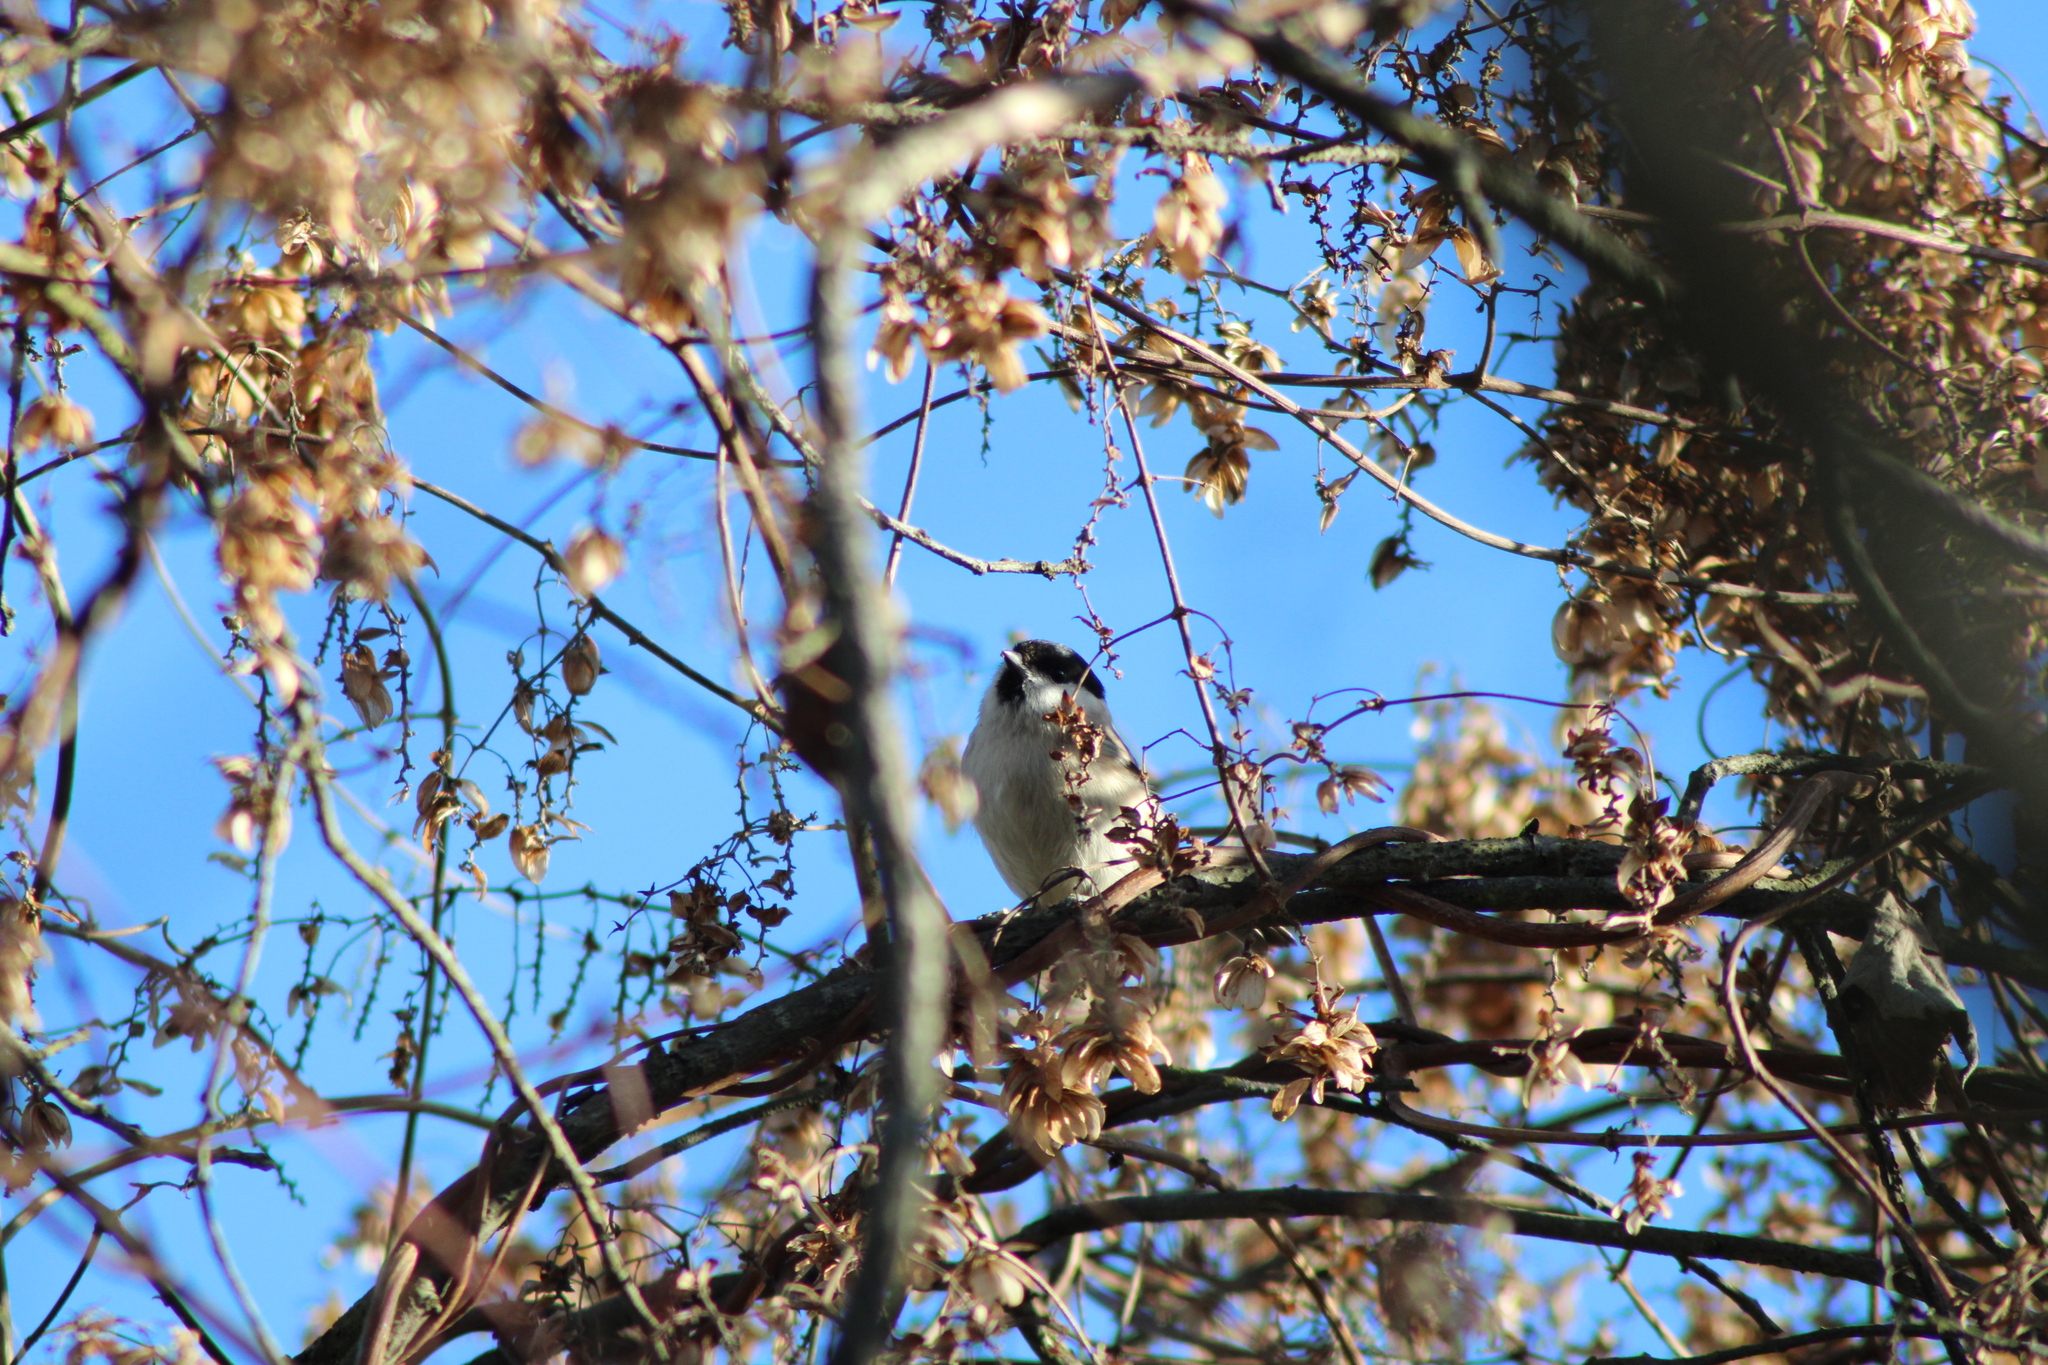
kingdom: Animalia
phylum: Chordata
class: Aves
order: Passeriformes
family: Paridae
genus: Poecile
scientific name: Poecile palustris
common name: Marsh tit
